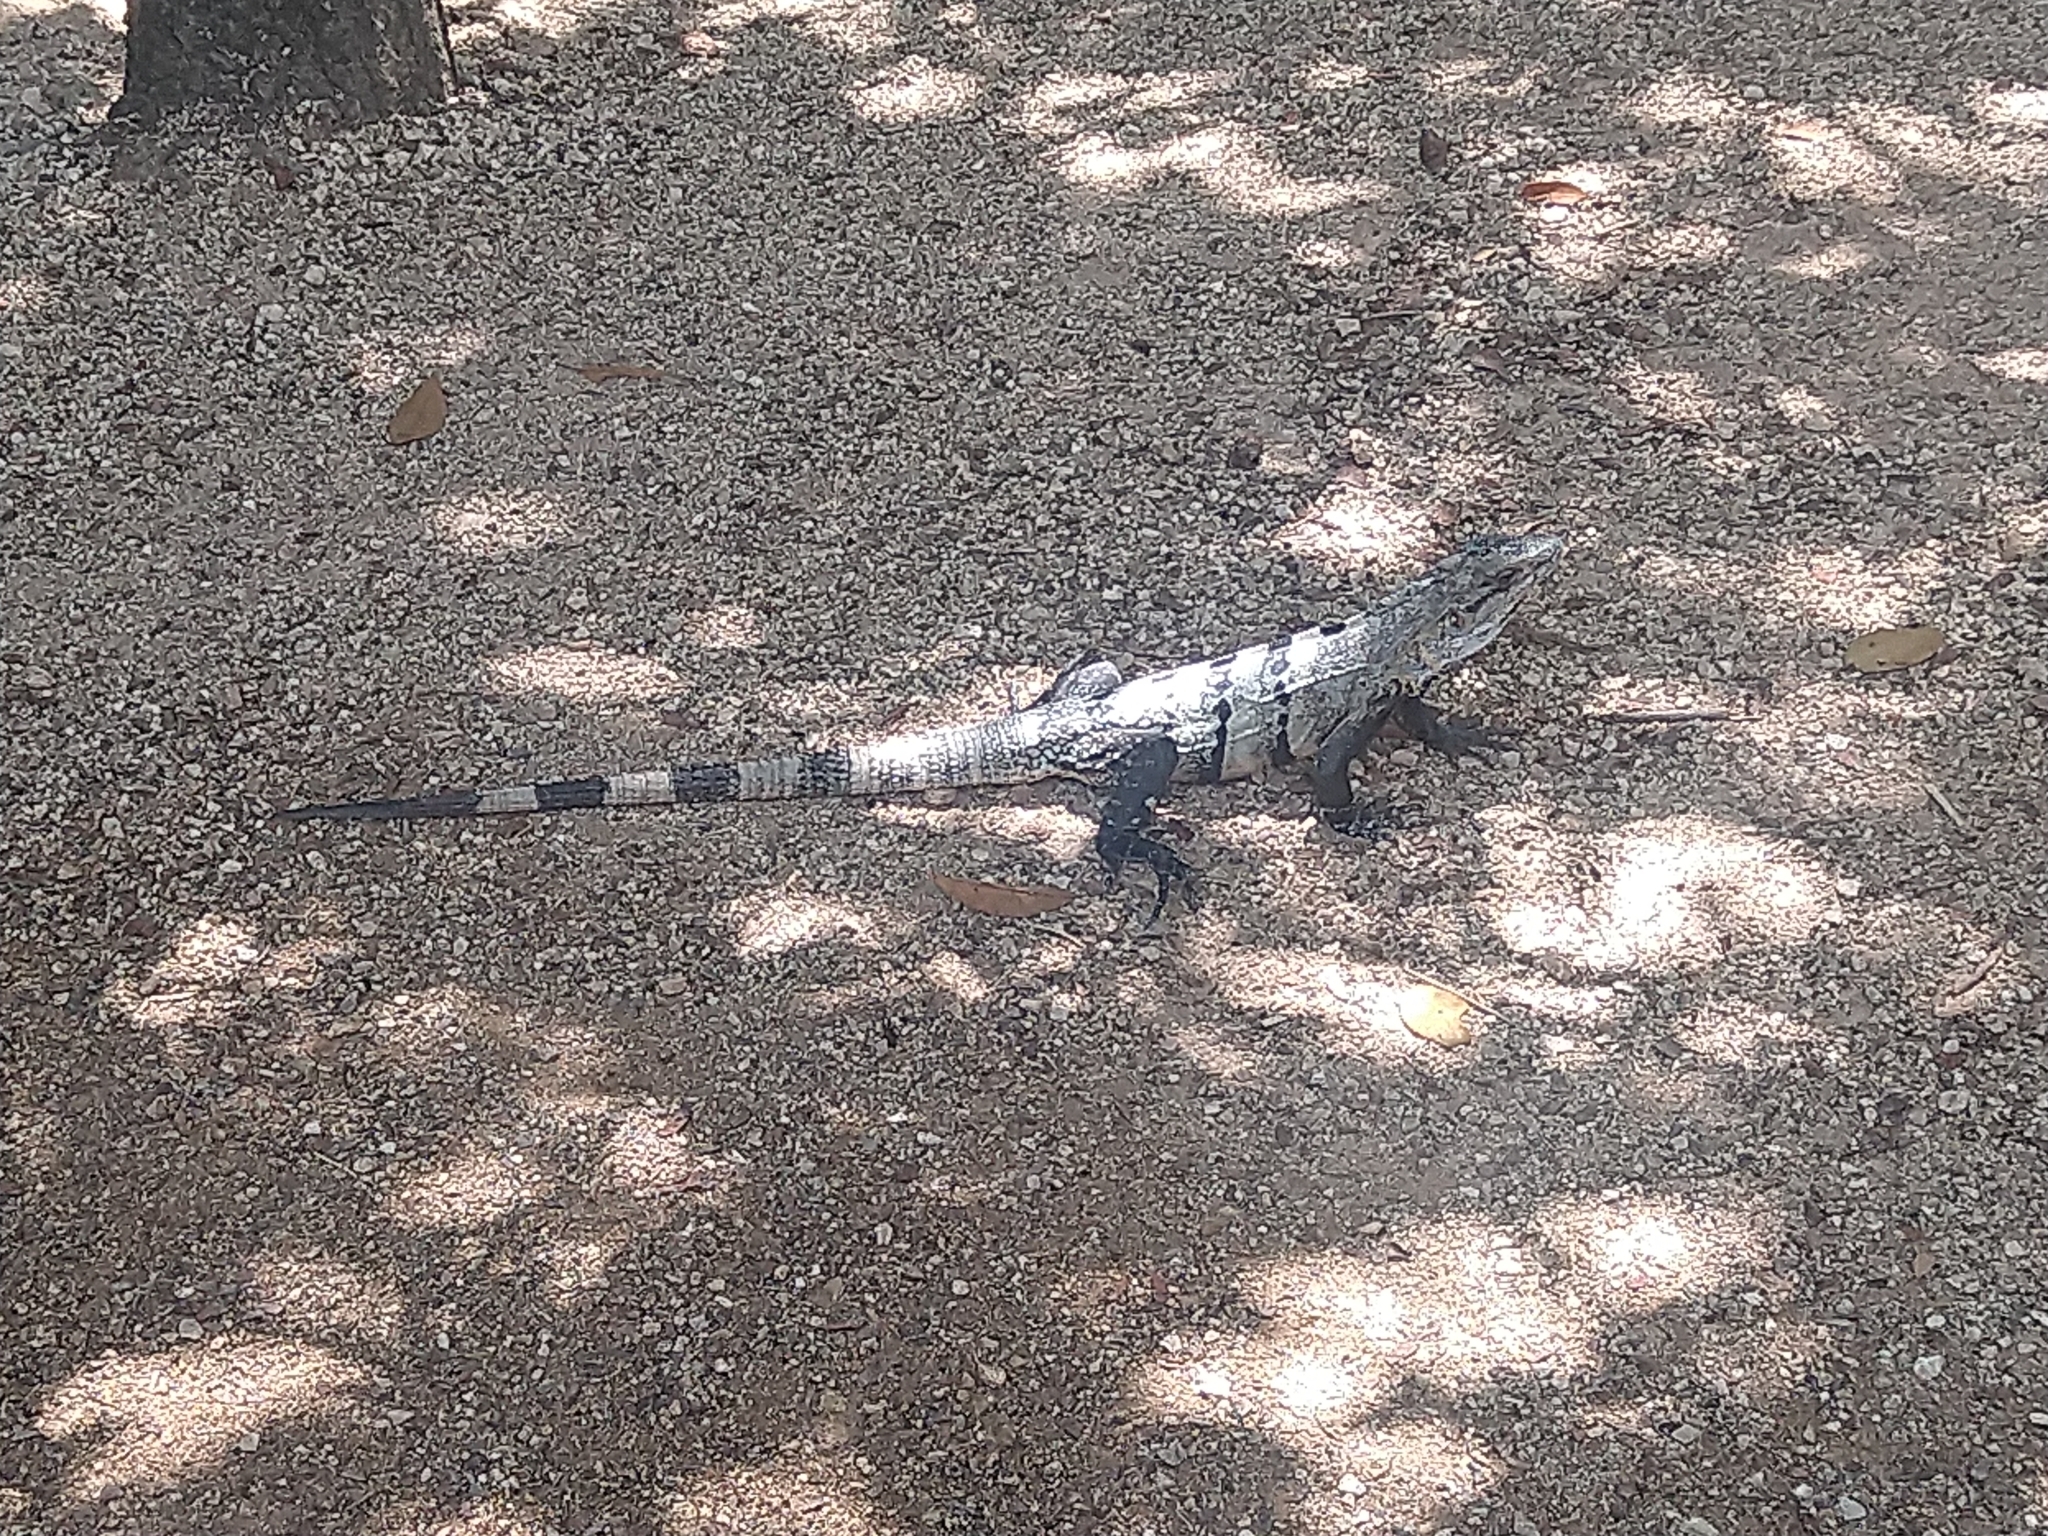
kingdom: Animalia
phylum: Chordata
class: Squamata
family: Iguanidae
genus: Ctenosaura
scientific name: Ctenosaura similis
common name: Black spiny-tailed iguana
